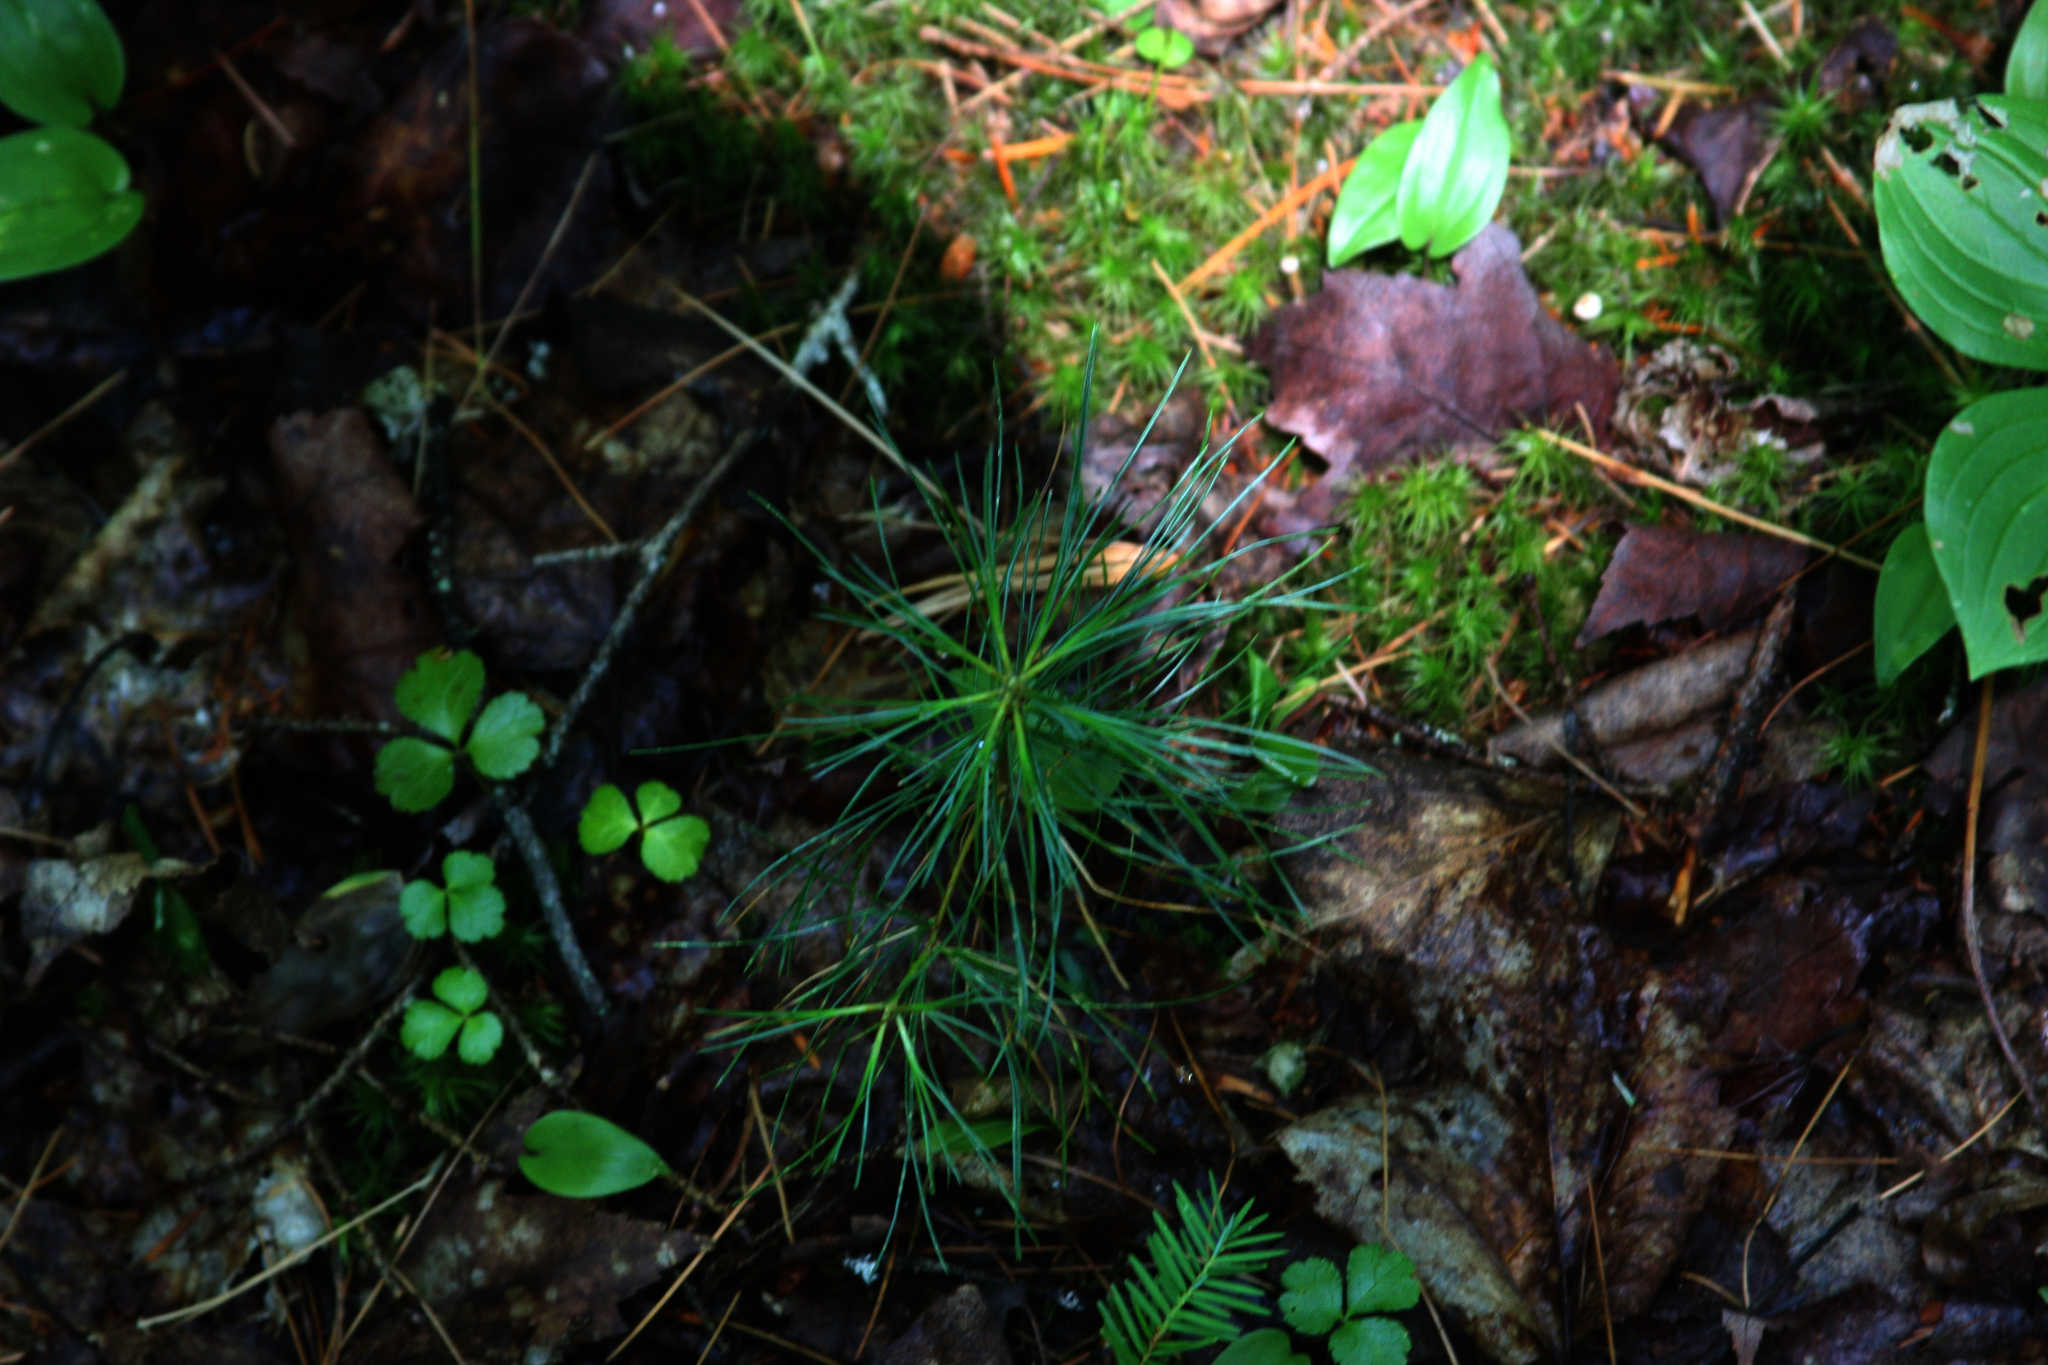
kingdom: Plantae
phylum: Tracheophyta
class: Pinopsida
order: Pinales
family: Pinaceae
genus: Pinus
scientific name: Pinus strobus
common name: Weymouth pine
